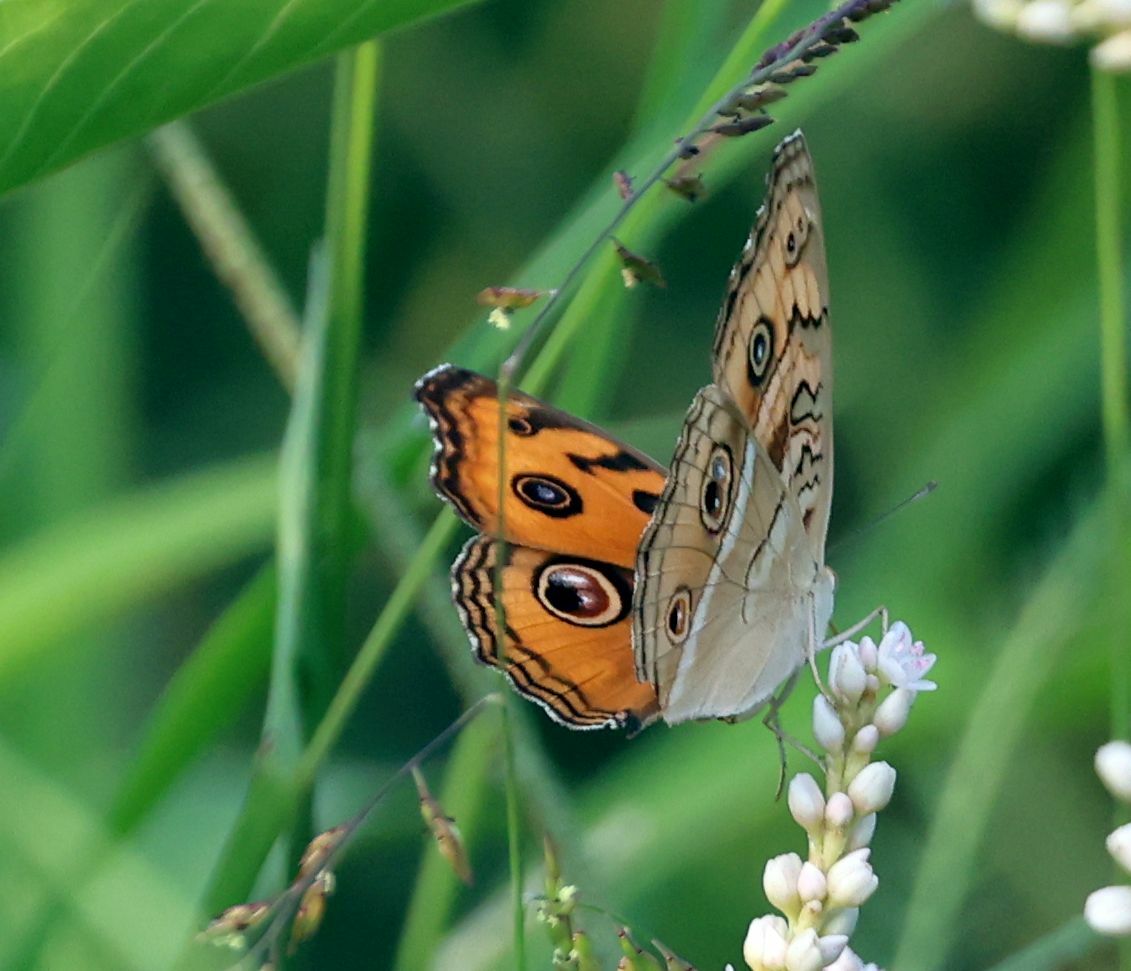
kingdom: Animalia
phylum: Arthropoda
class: Insecta
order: Lepidoptera
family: Nymphalidae
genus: Junonia
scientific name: Junonia almana
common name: Peacock pansy
